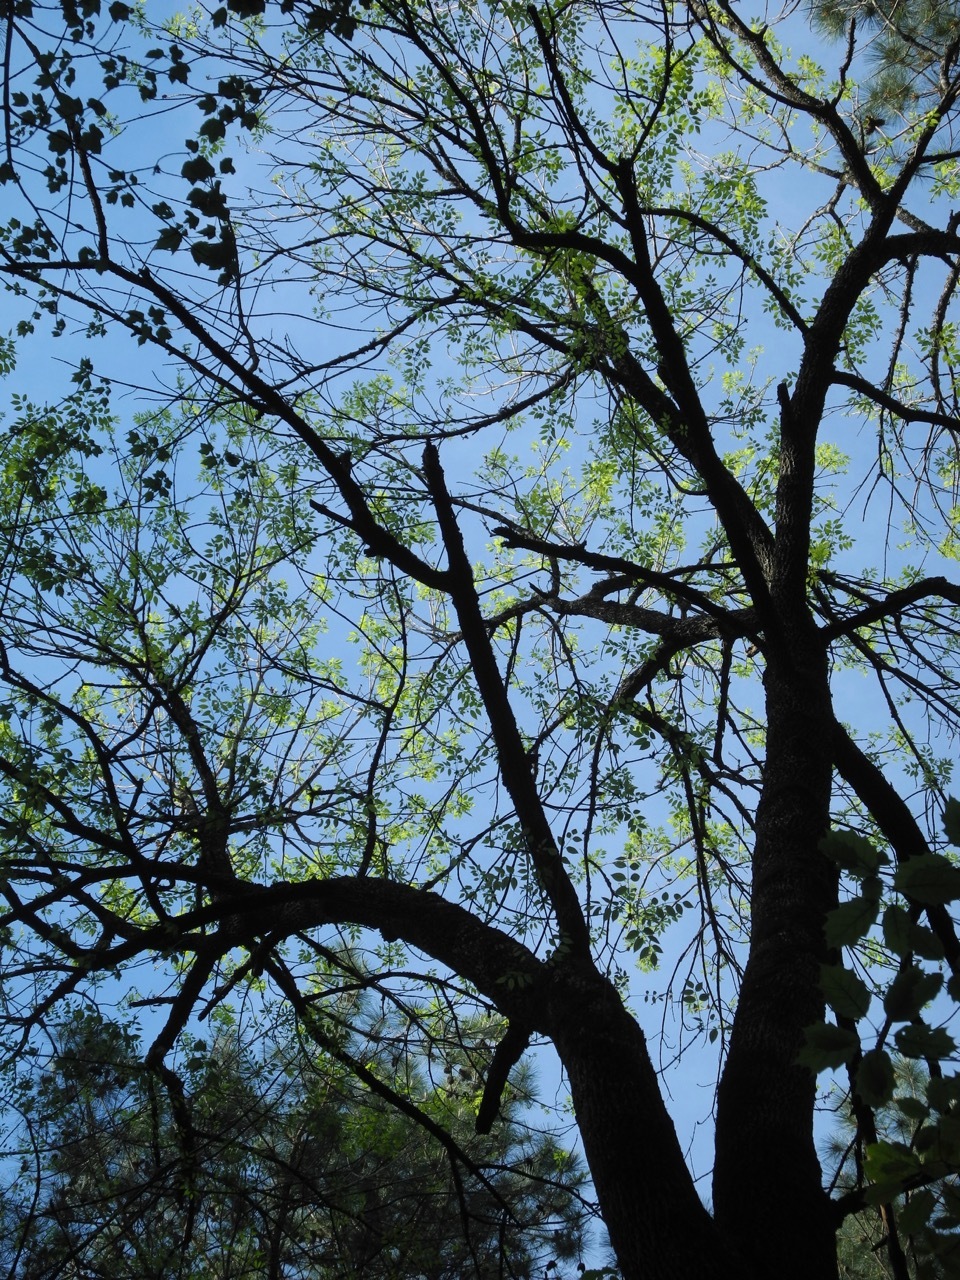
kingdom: Plantae
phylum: Tracheophyta
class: Magnoliopsida
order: Lamiales
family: Oleaceae
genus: Fraxinus
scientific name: Fraxinus pennsylvanica
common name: Green ash
